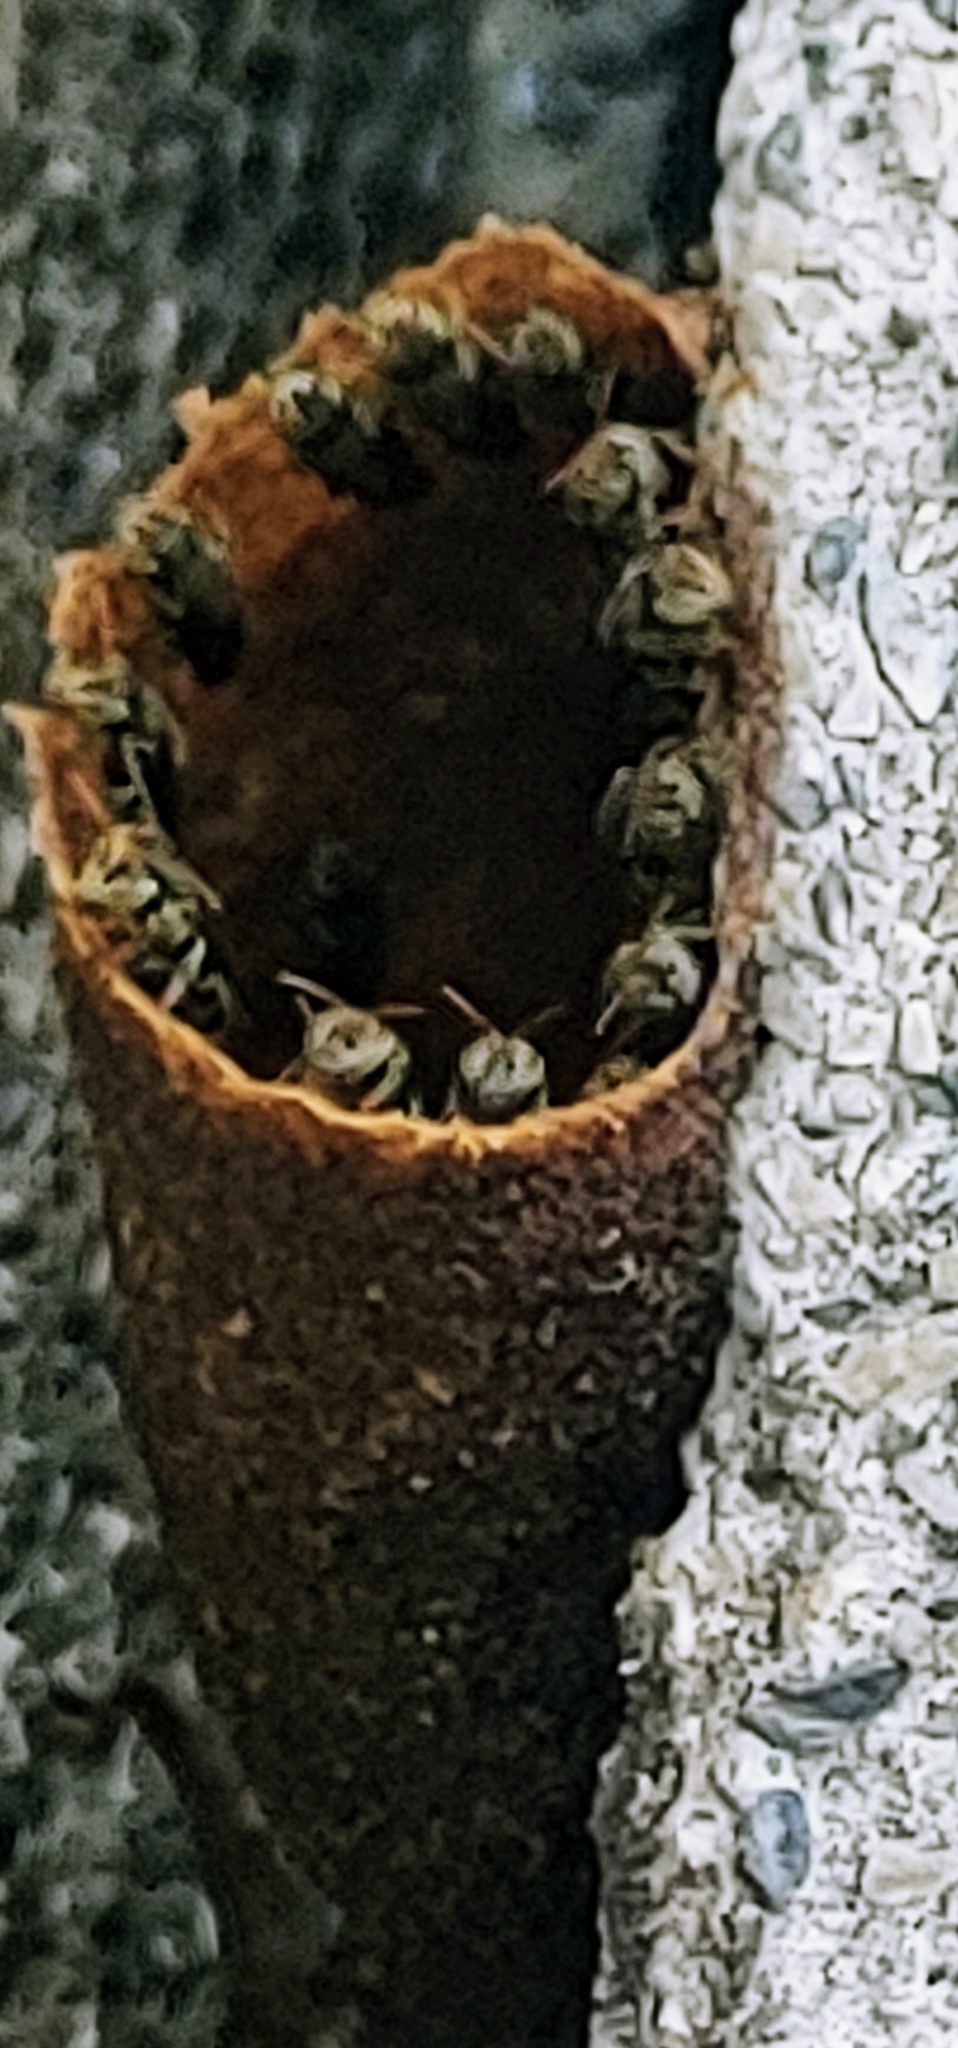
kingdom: Animalia
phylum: Arthropoda
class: Insecta
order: Hymenoptera
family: Apidae
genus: Nannotrigona
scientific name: Nannotrigona testaceicornis
